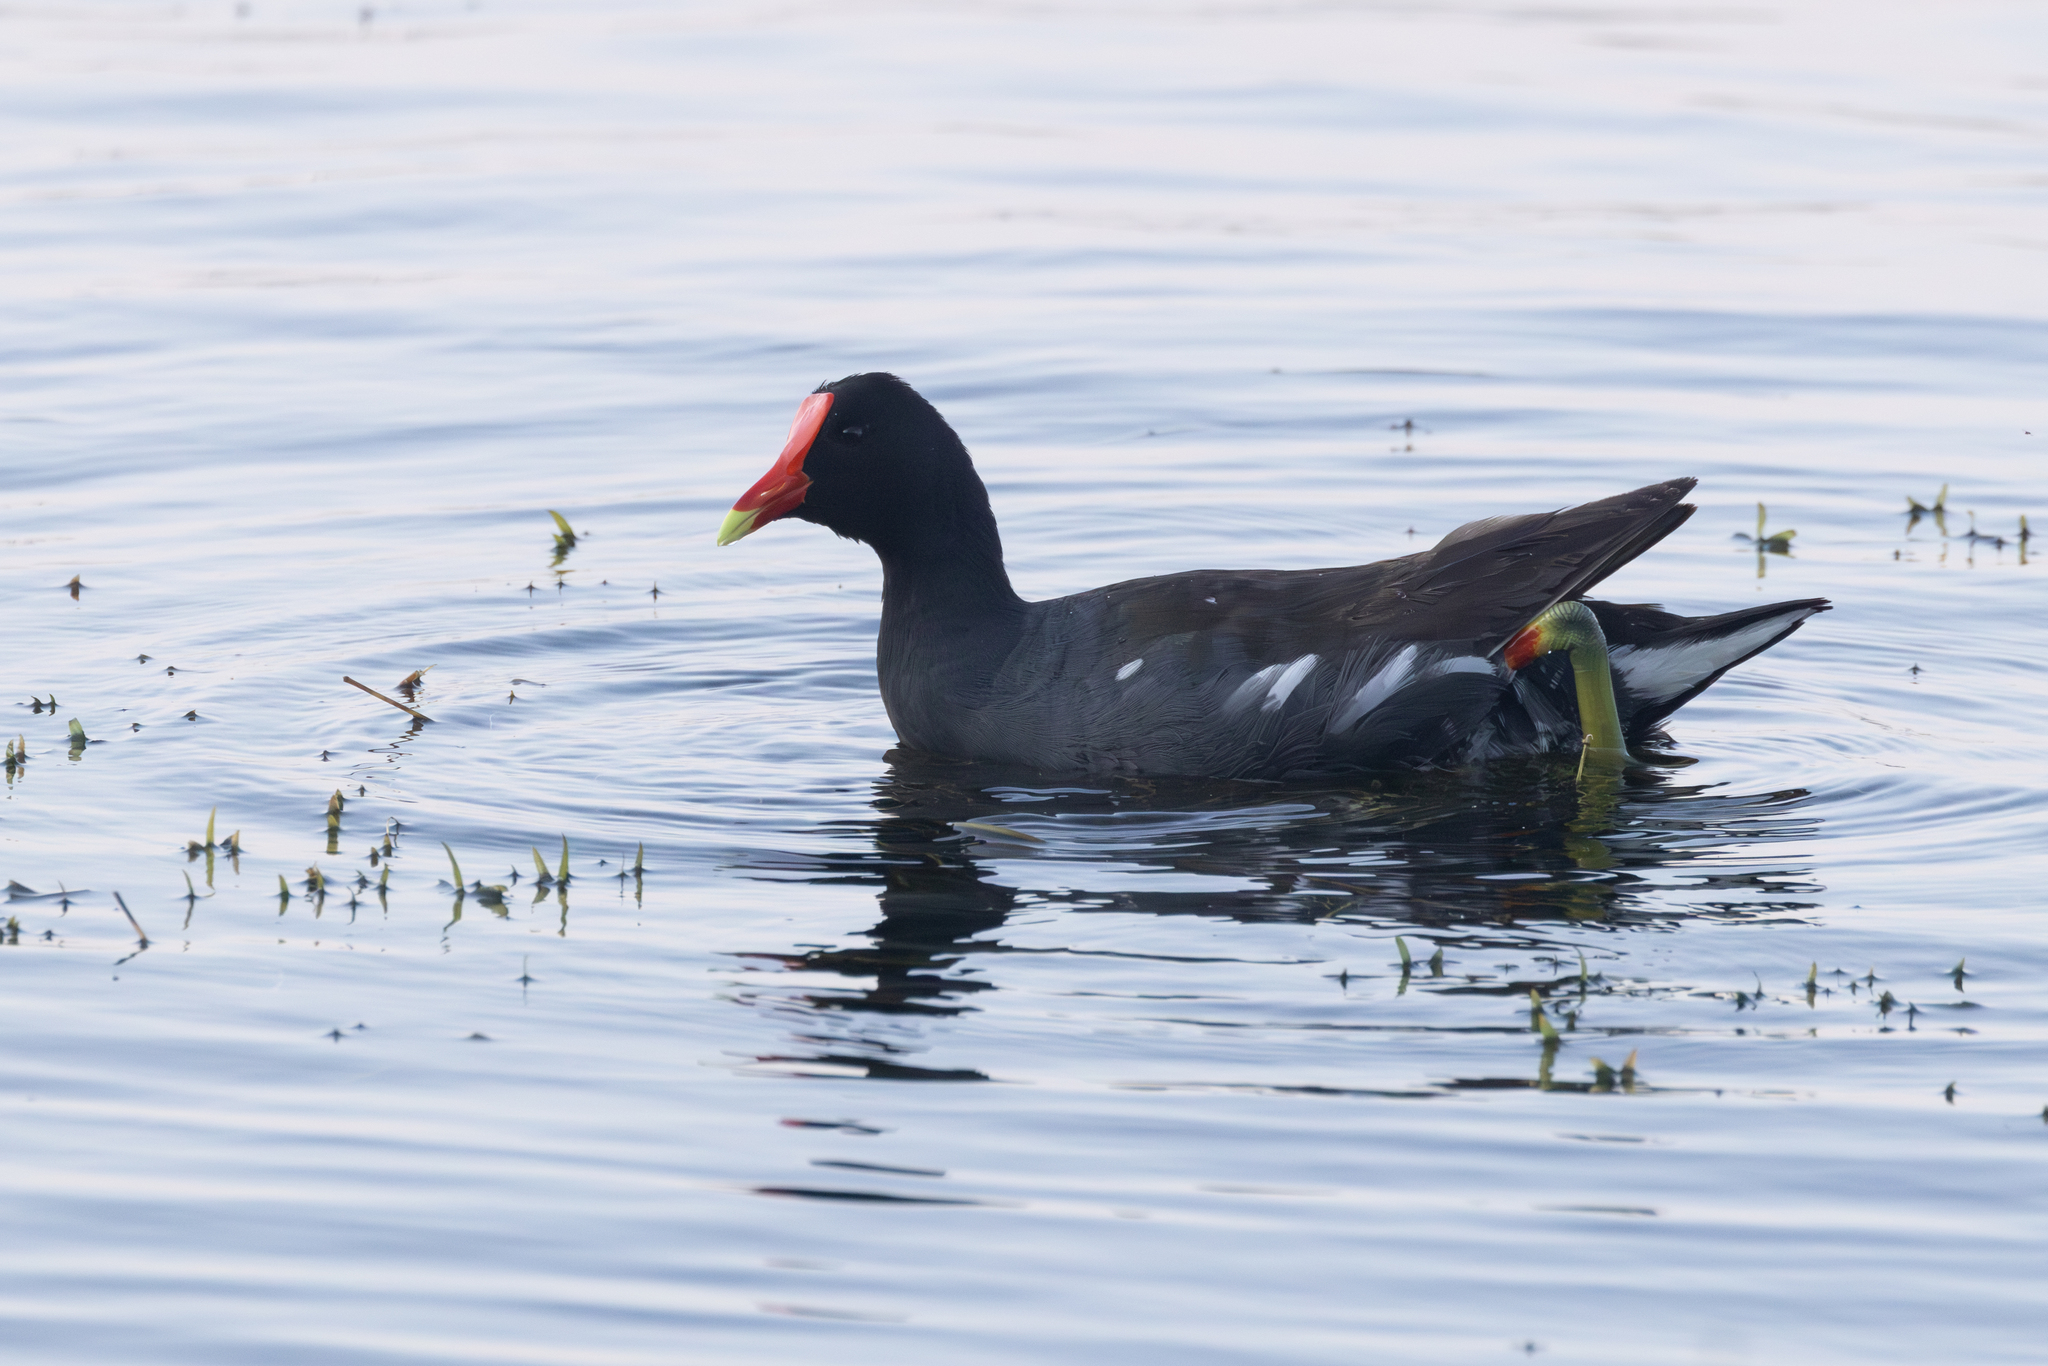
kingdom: Animalia
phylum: Chordata
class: Aves
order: Gruiformes
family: Rallidae
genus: Gallinula
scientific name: Gallinula chloropus
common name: Common moorhen
